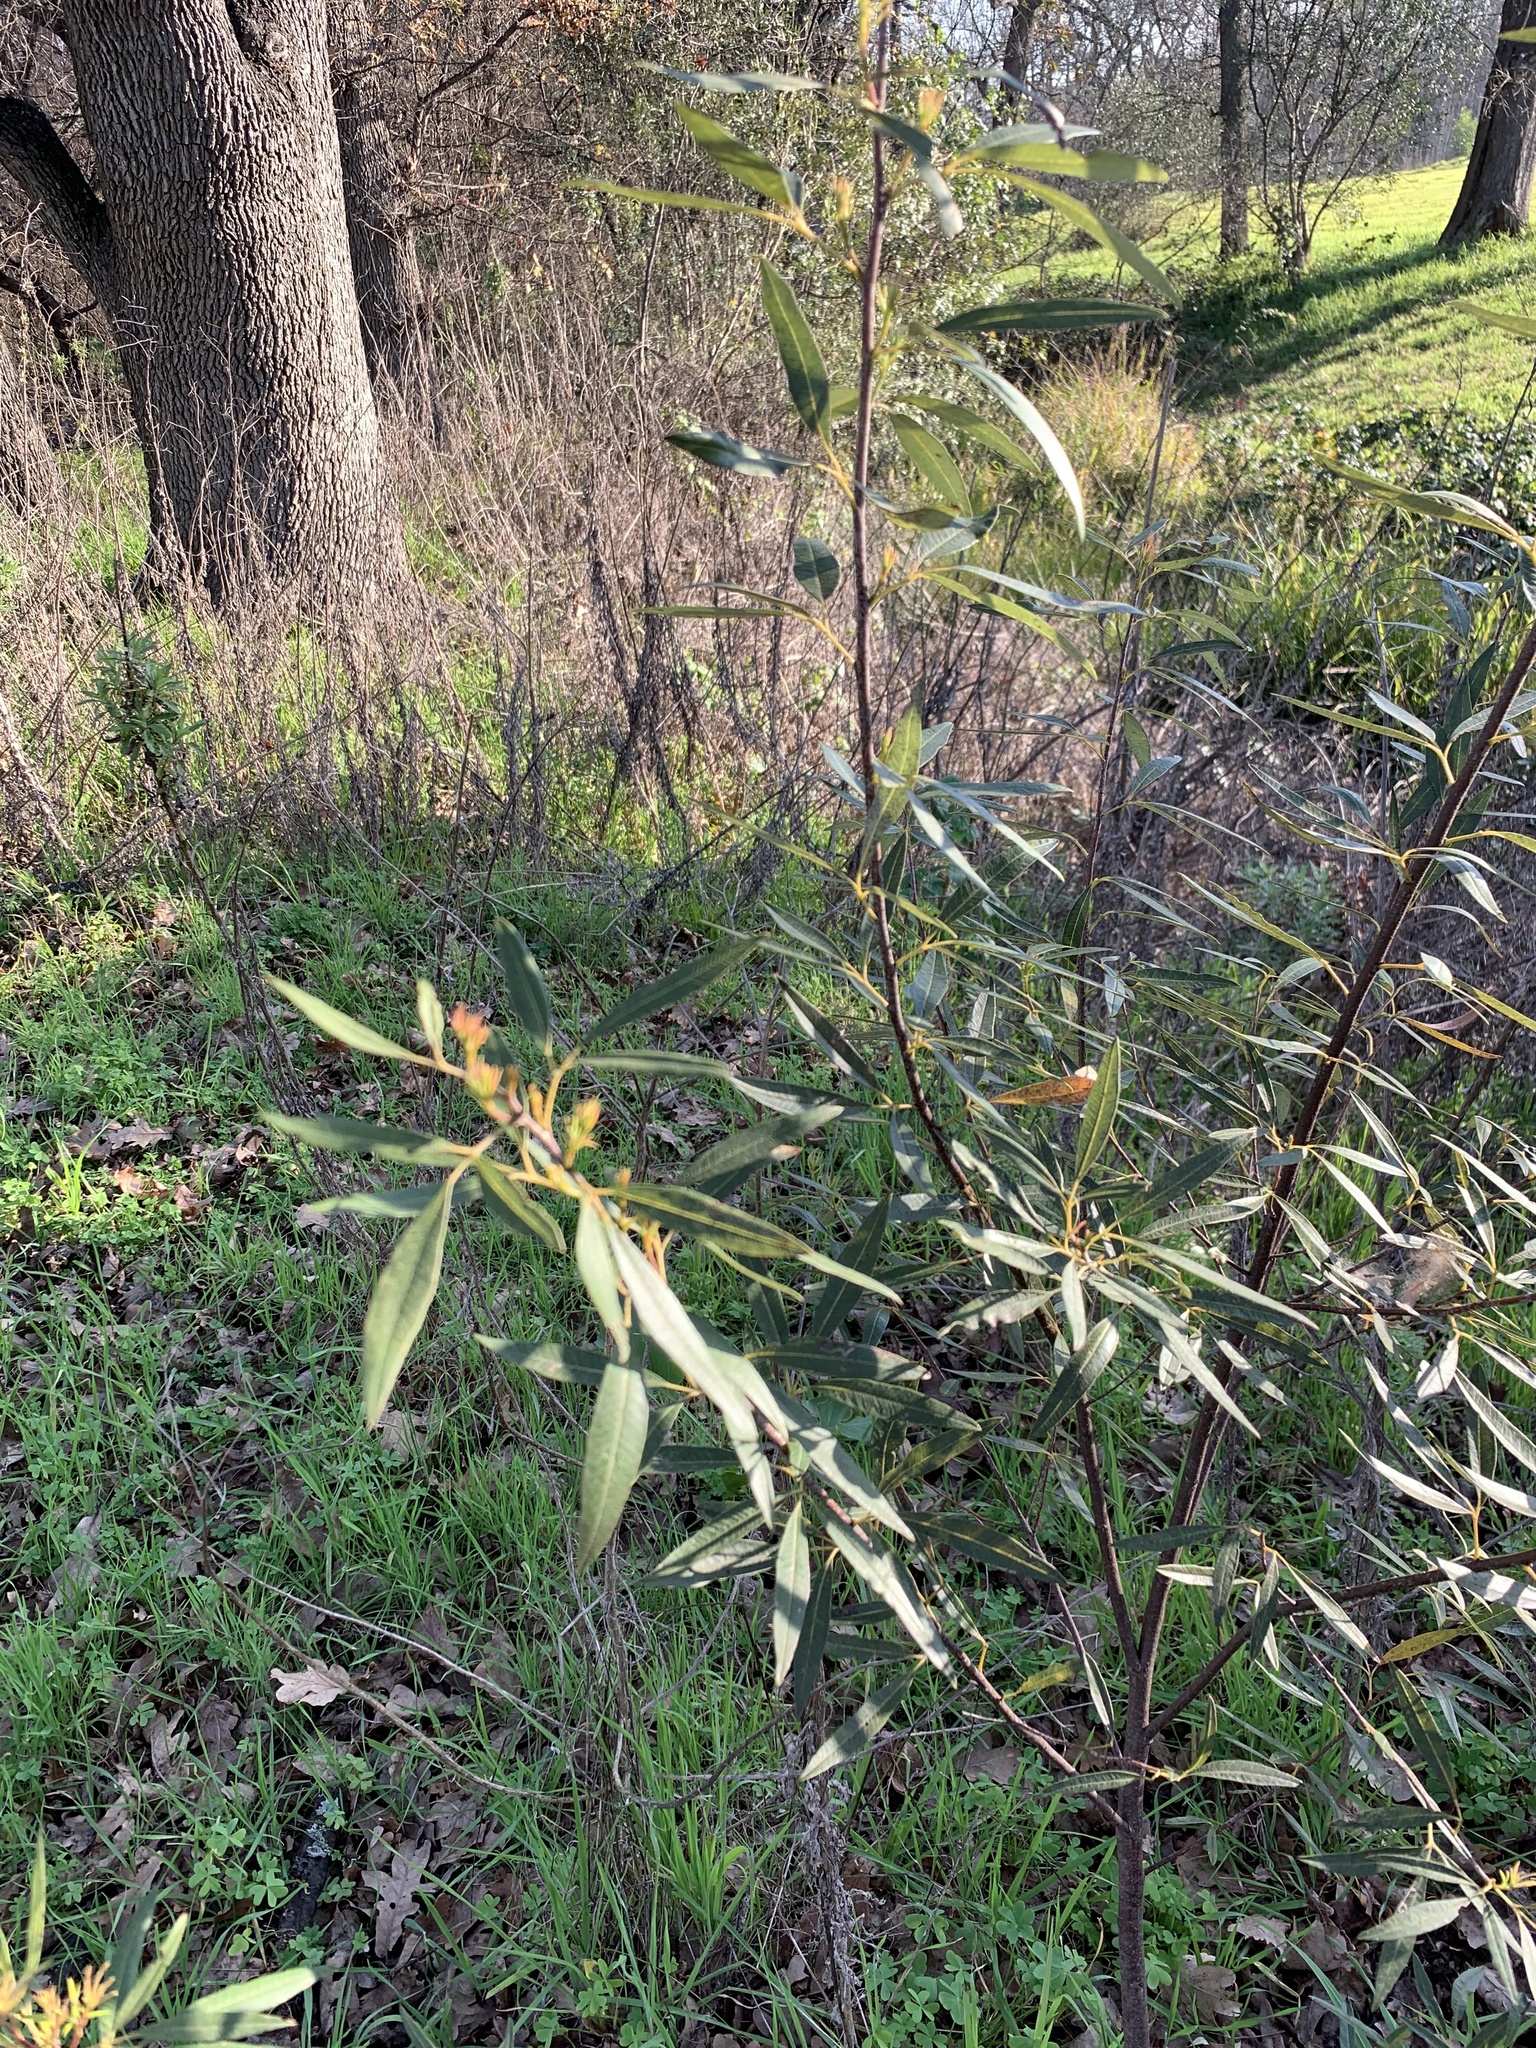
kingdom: Plantae
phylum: Tracheophyta
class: Magnoliopsida
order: Sapindales
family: Anacardiaceae
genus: Searsia
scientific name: Searsia angustifolia
